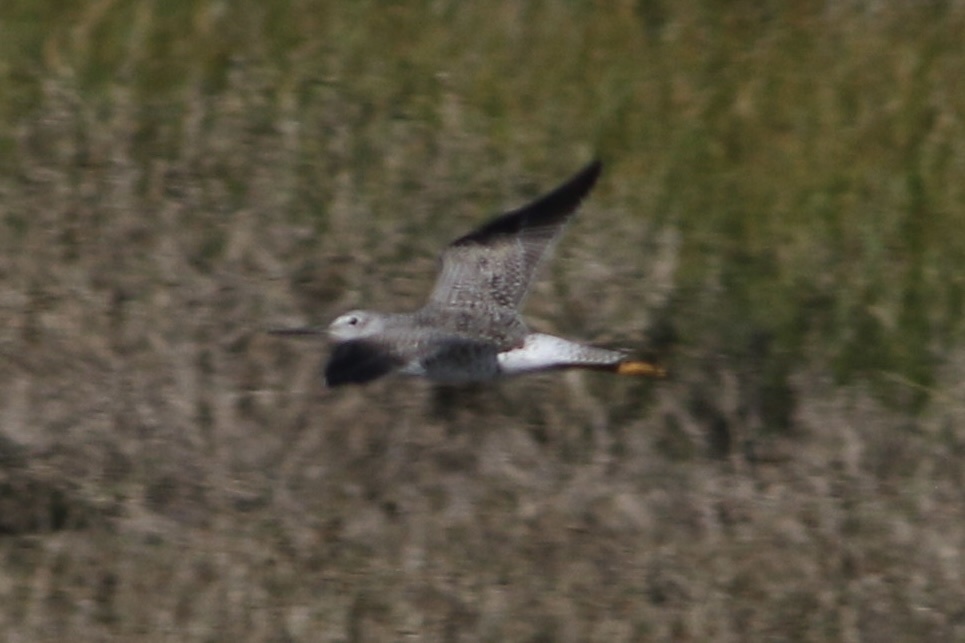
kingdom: Animalia
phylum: Chordata
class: Aves
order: Charadriiformes
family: Scolopacidae
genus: Tringa
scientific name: Tringa melanoleuca
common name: Greater yellowlegs
